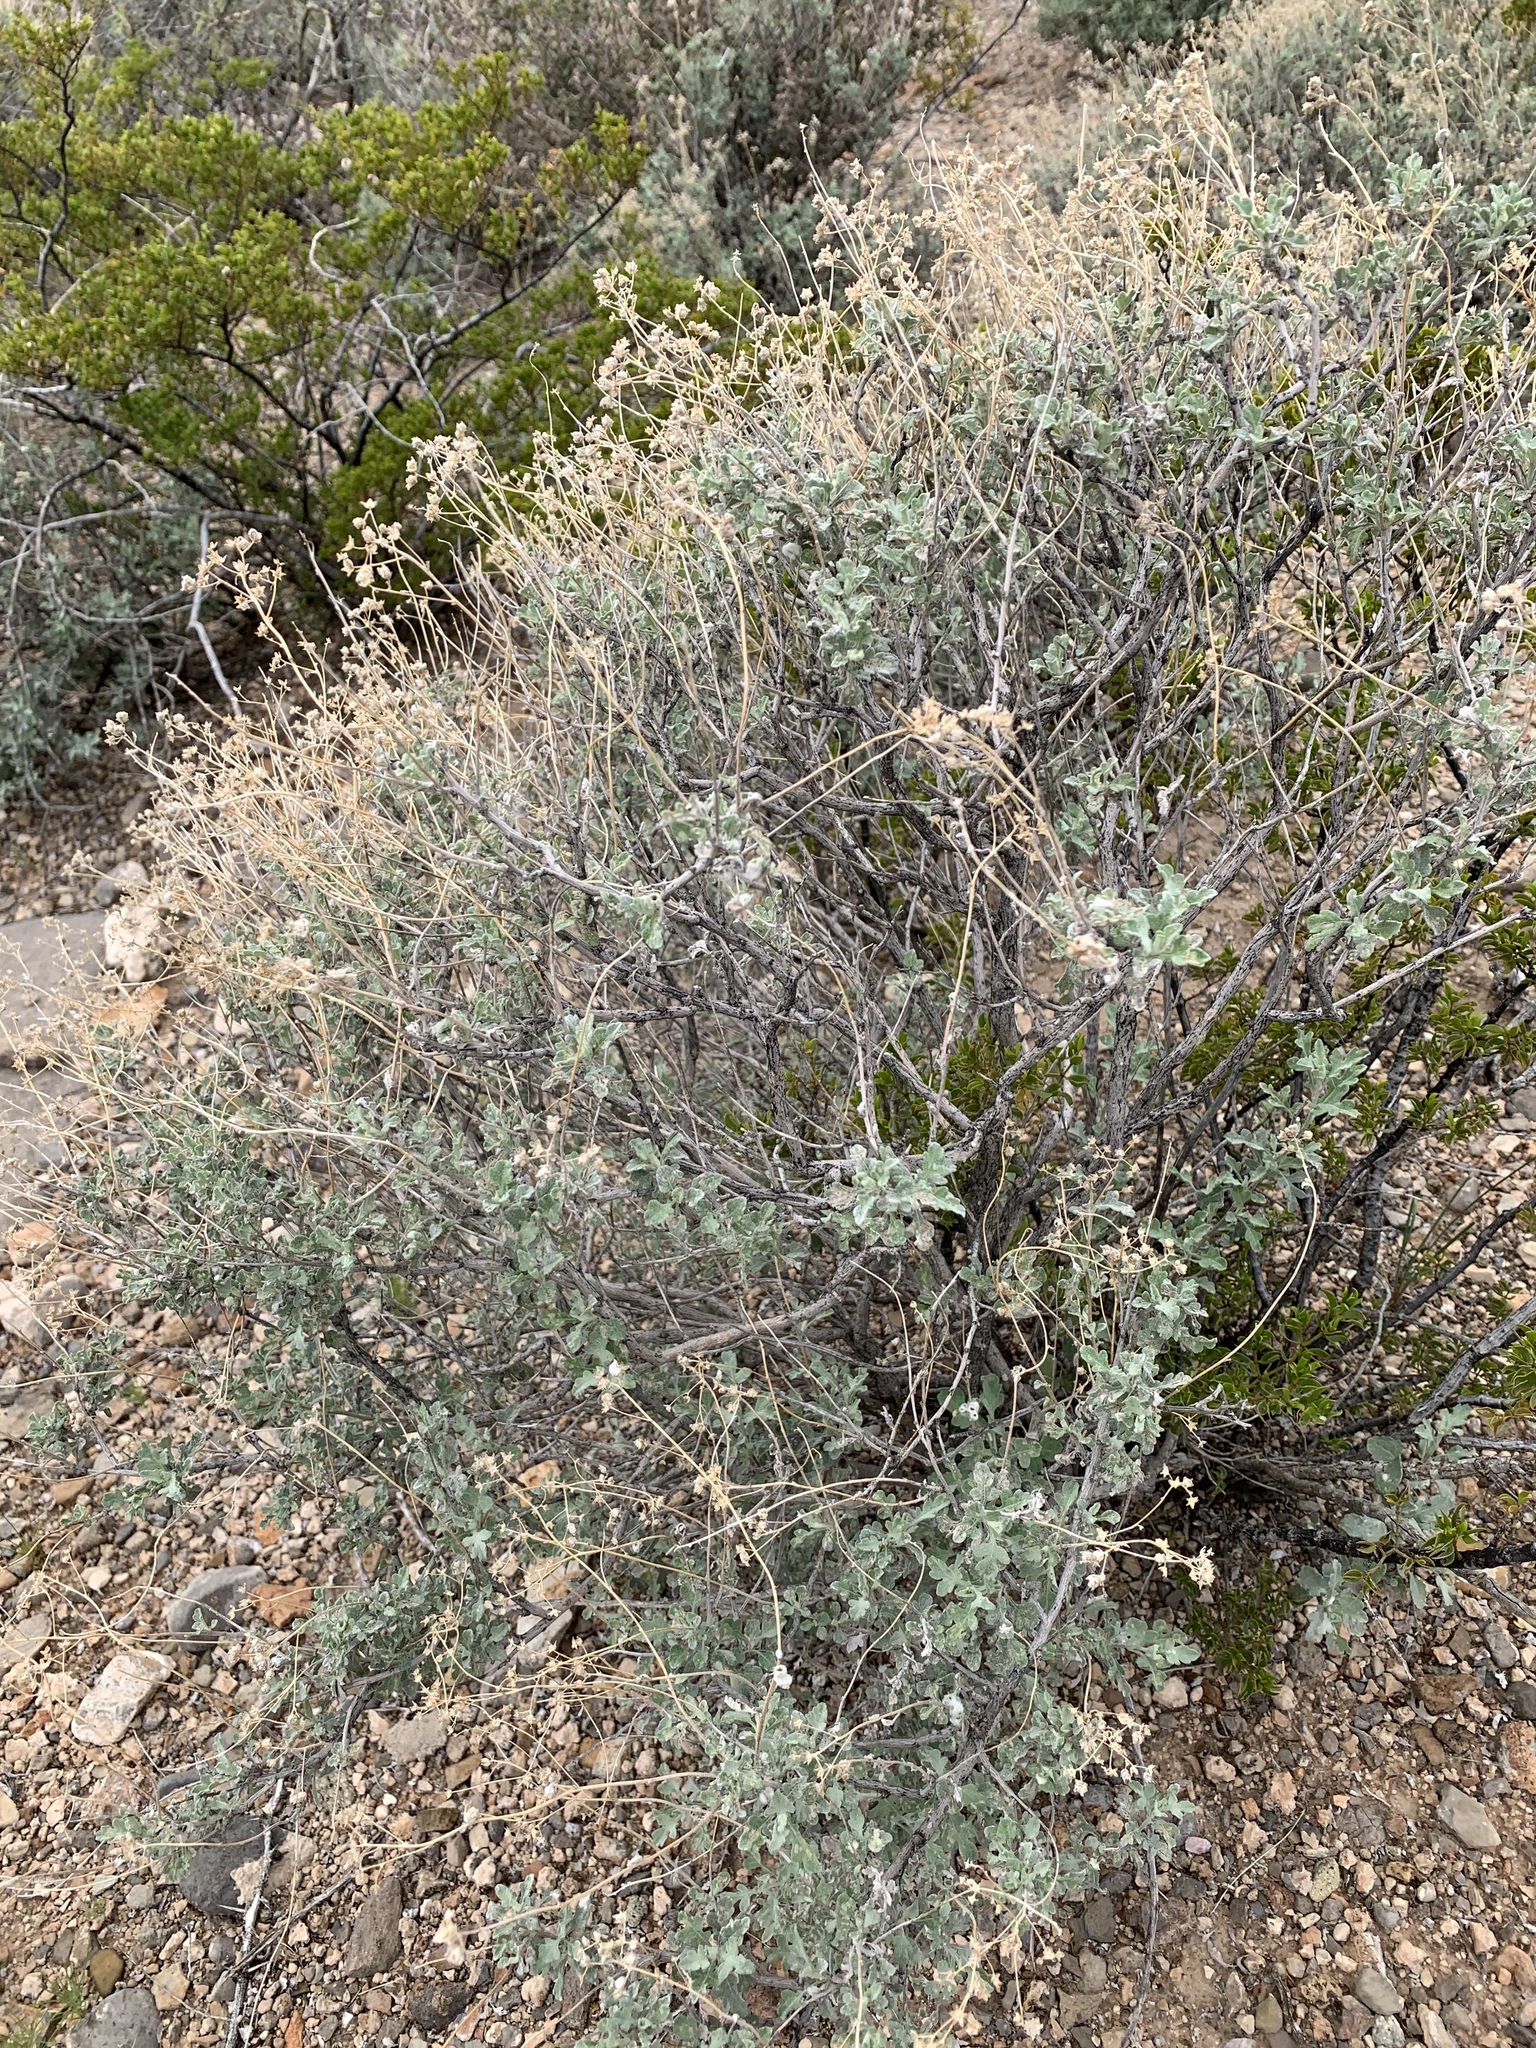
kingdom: Plantae
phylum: Tracheophyta
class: Magnoliopsida
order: Asterales
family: Asteraceae
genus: Parthenium
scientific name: Parthenium incanum
